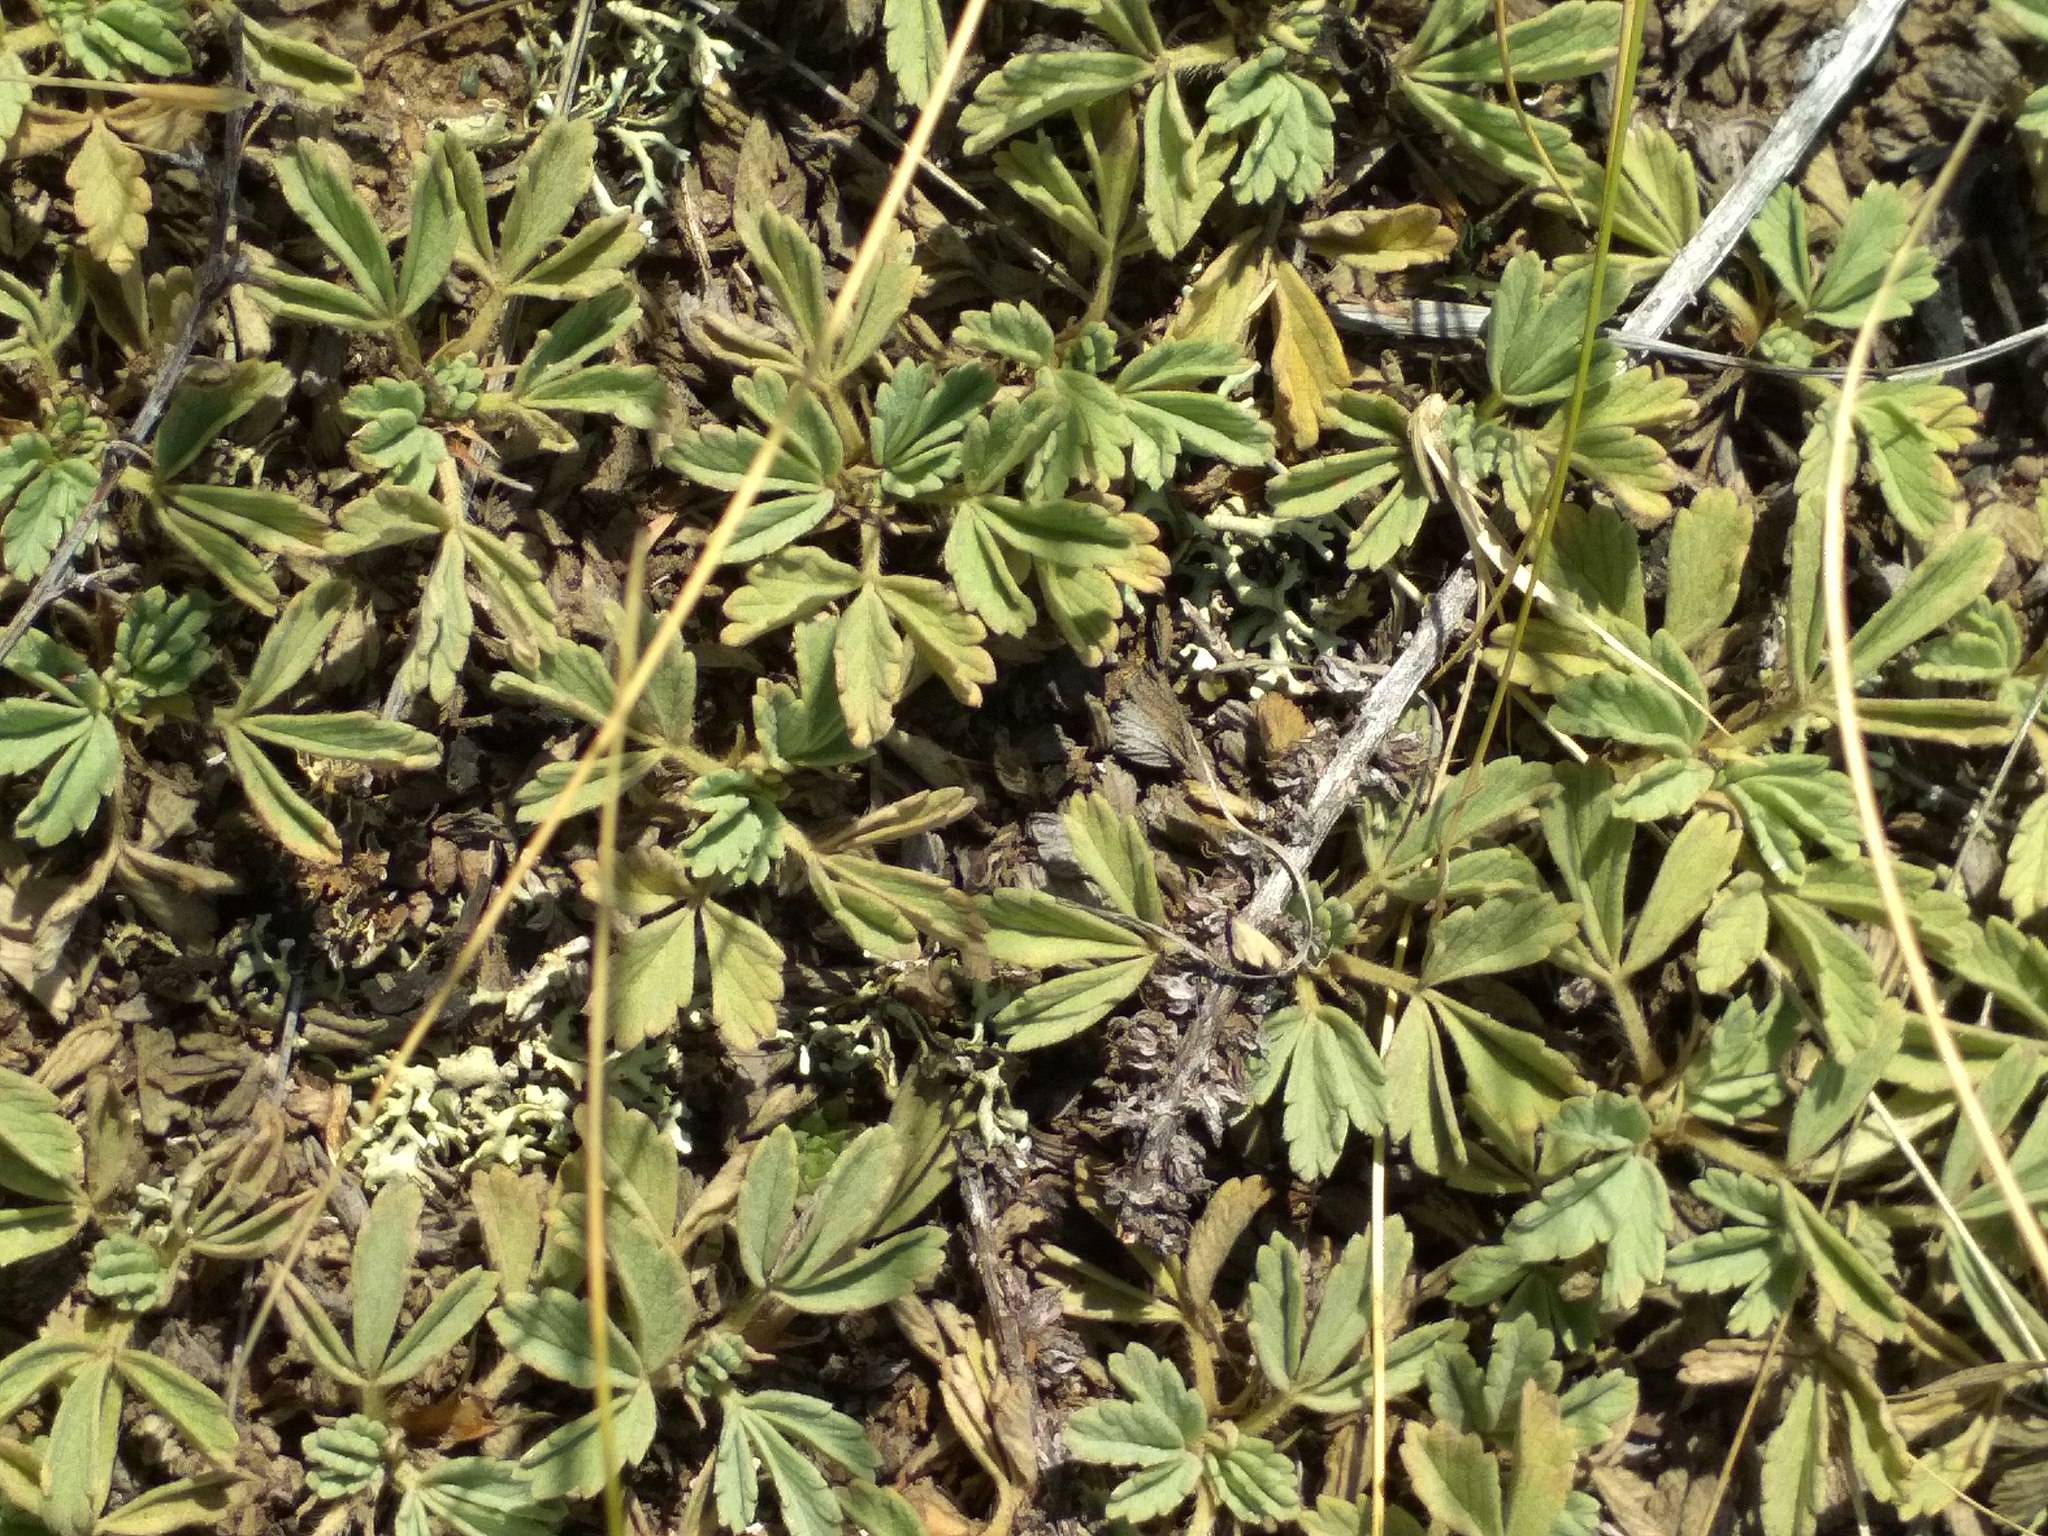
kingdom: Plantae
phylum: Tracheophyta
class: Magnoliopsida
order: Rosales
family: Rosaceae
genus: Potentilla
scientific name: Potentilla acaulis
